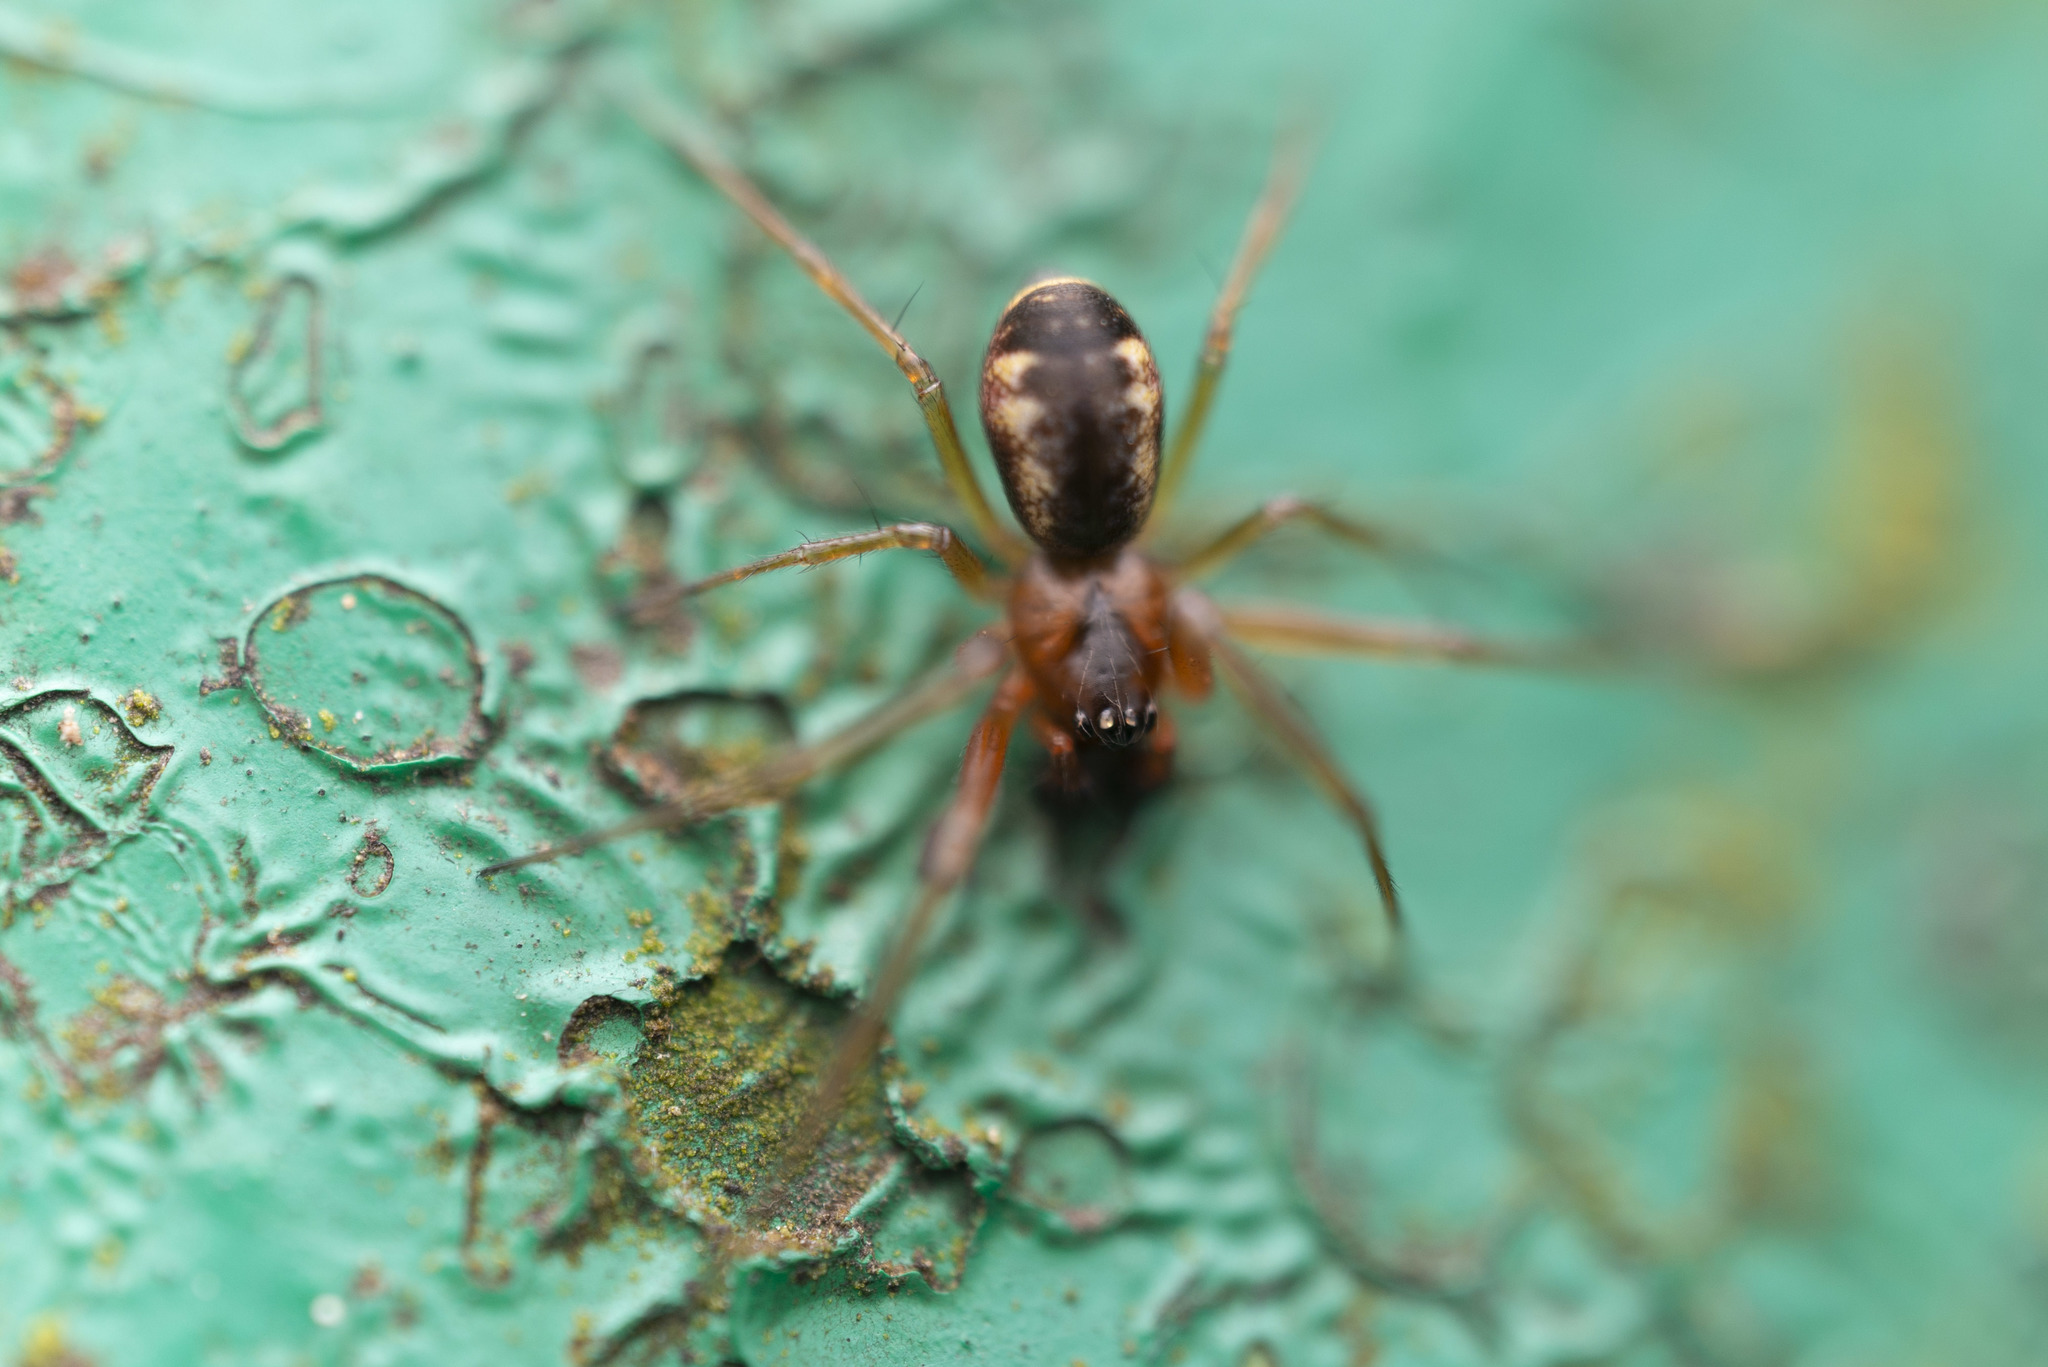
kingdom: Animalia
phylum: Arthropoda
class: Arachnida
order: Araneae
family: Linyphiidae
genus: Prosoponoides
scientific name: Prosoponoides sinense
